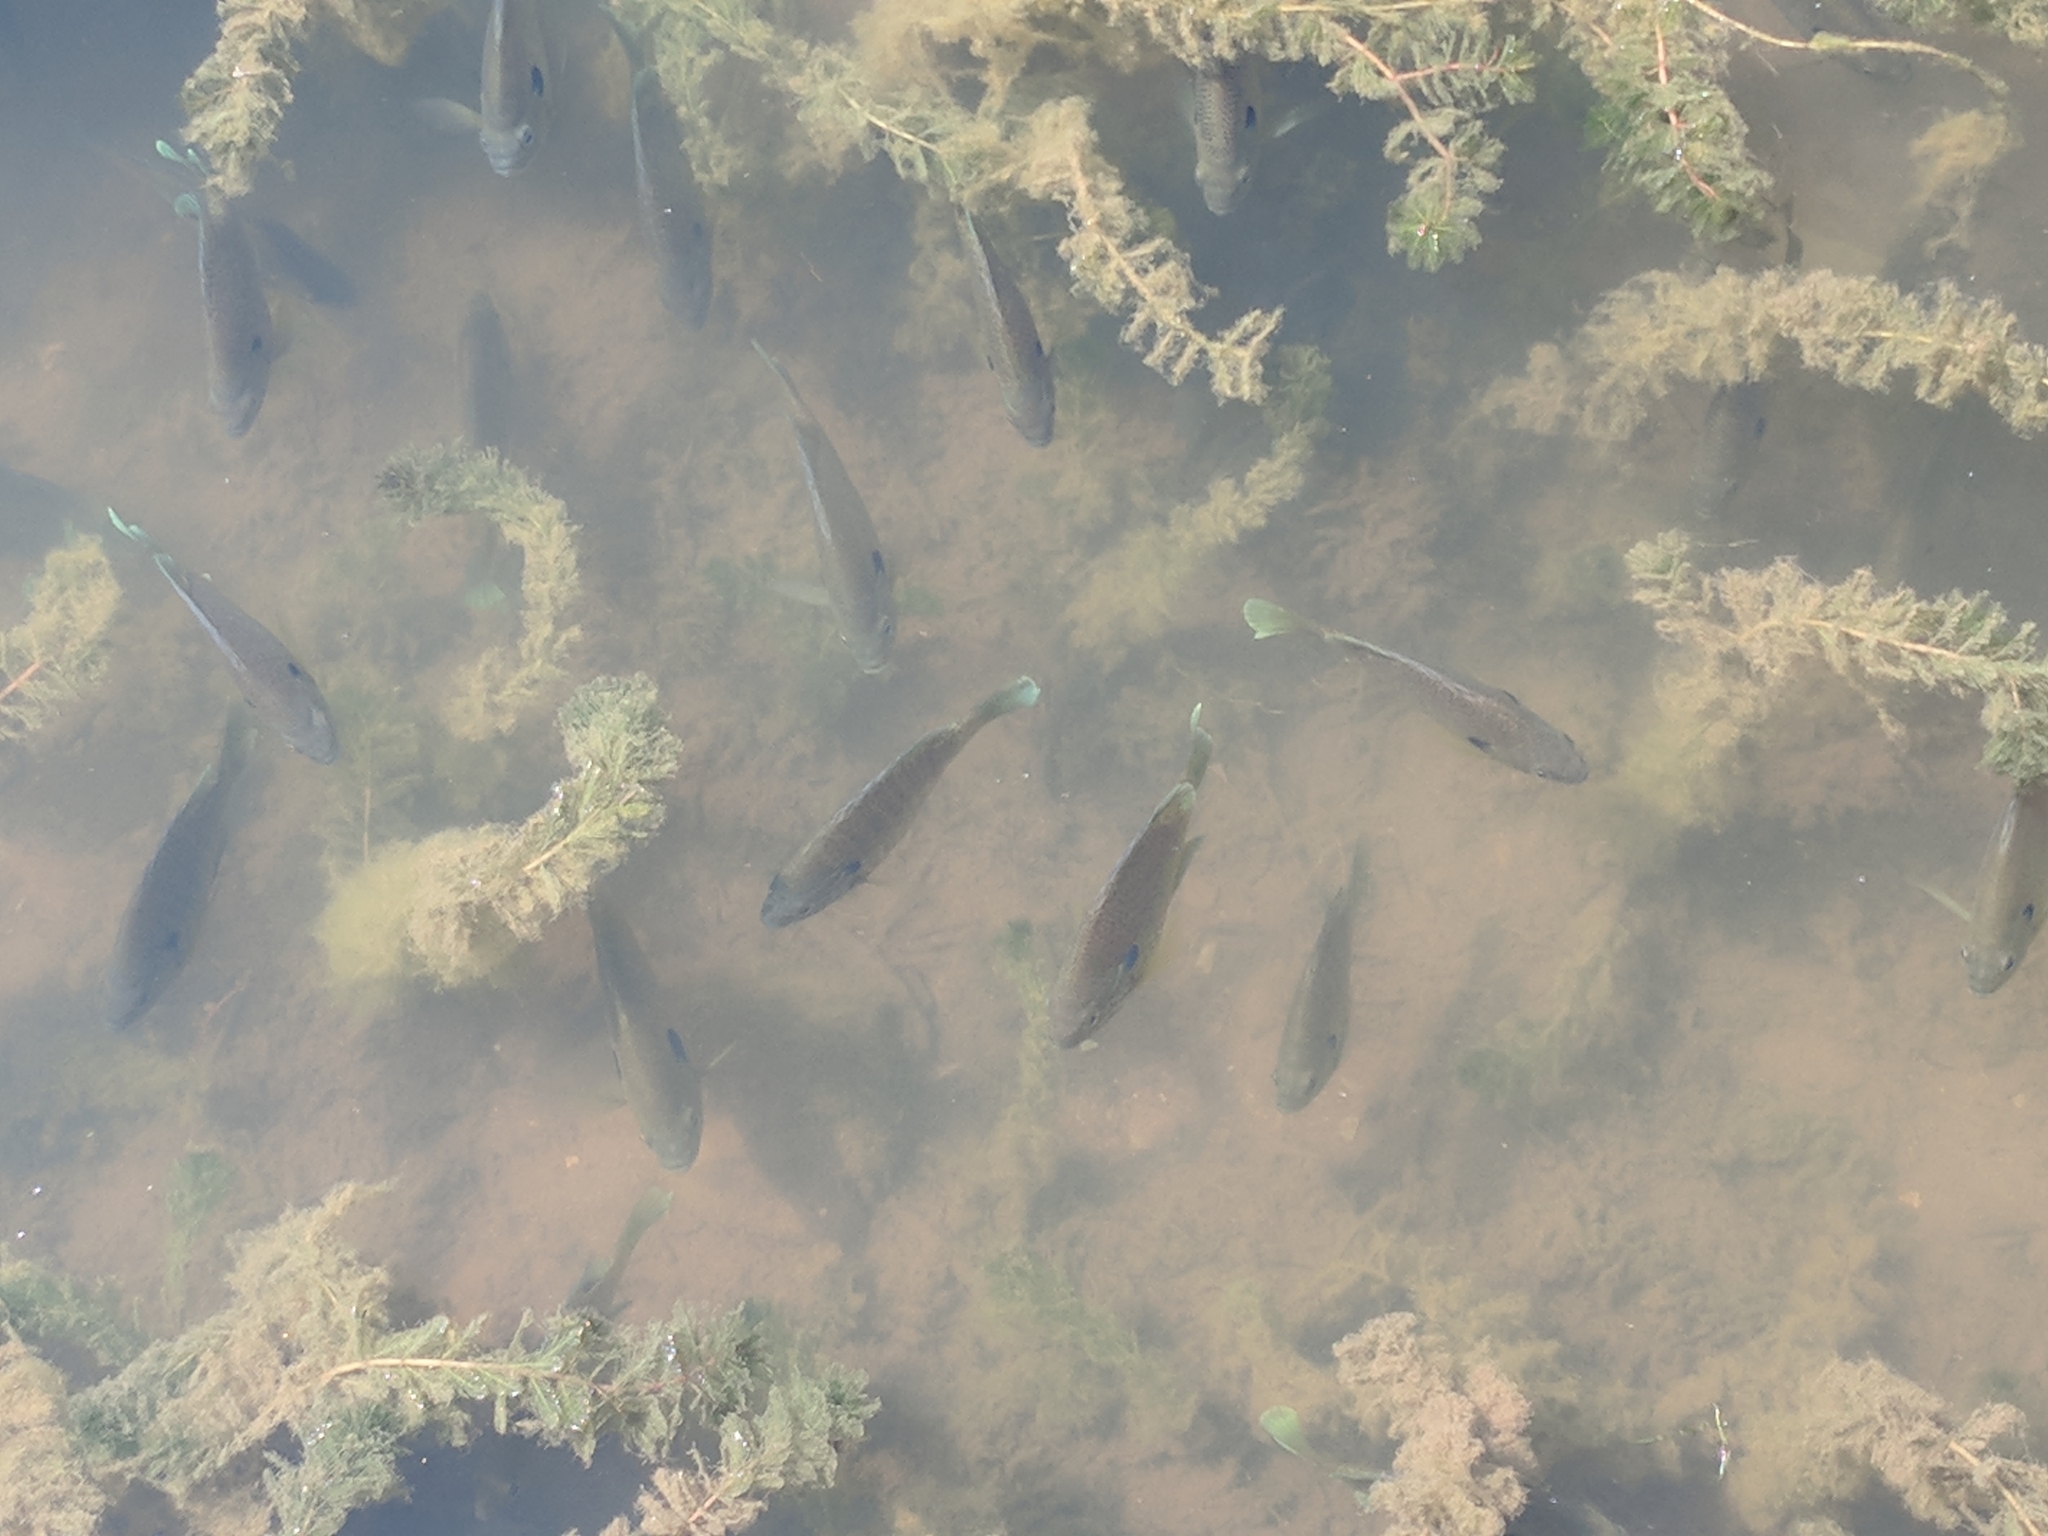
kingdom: Animalia
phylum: Chordata
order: Perciformes
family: Centrarchidae
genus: Lepomis
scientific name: Lepomis macrochirus
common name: Bluegill
